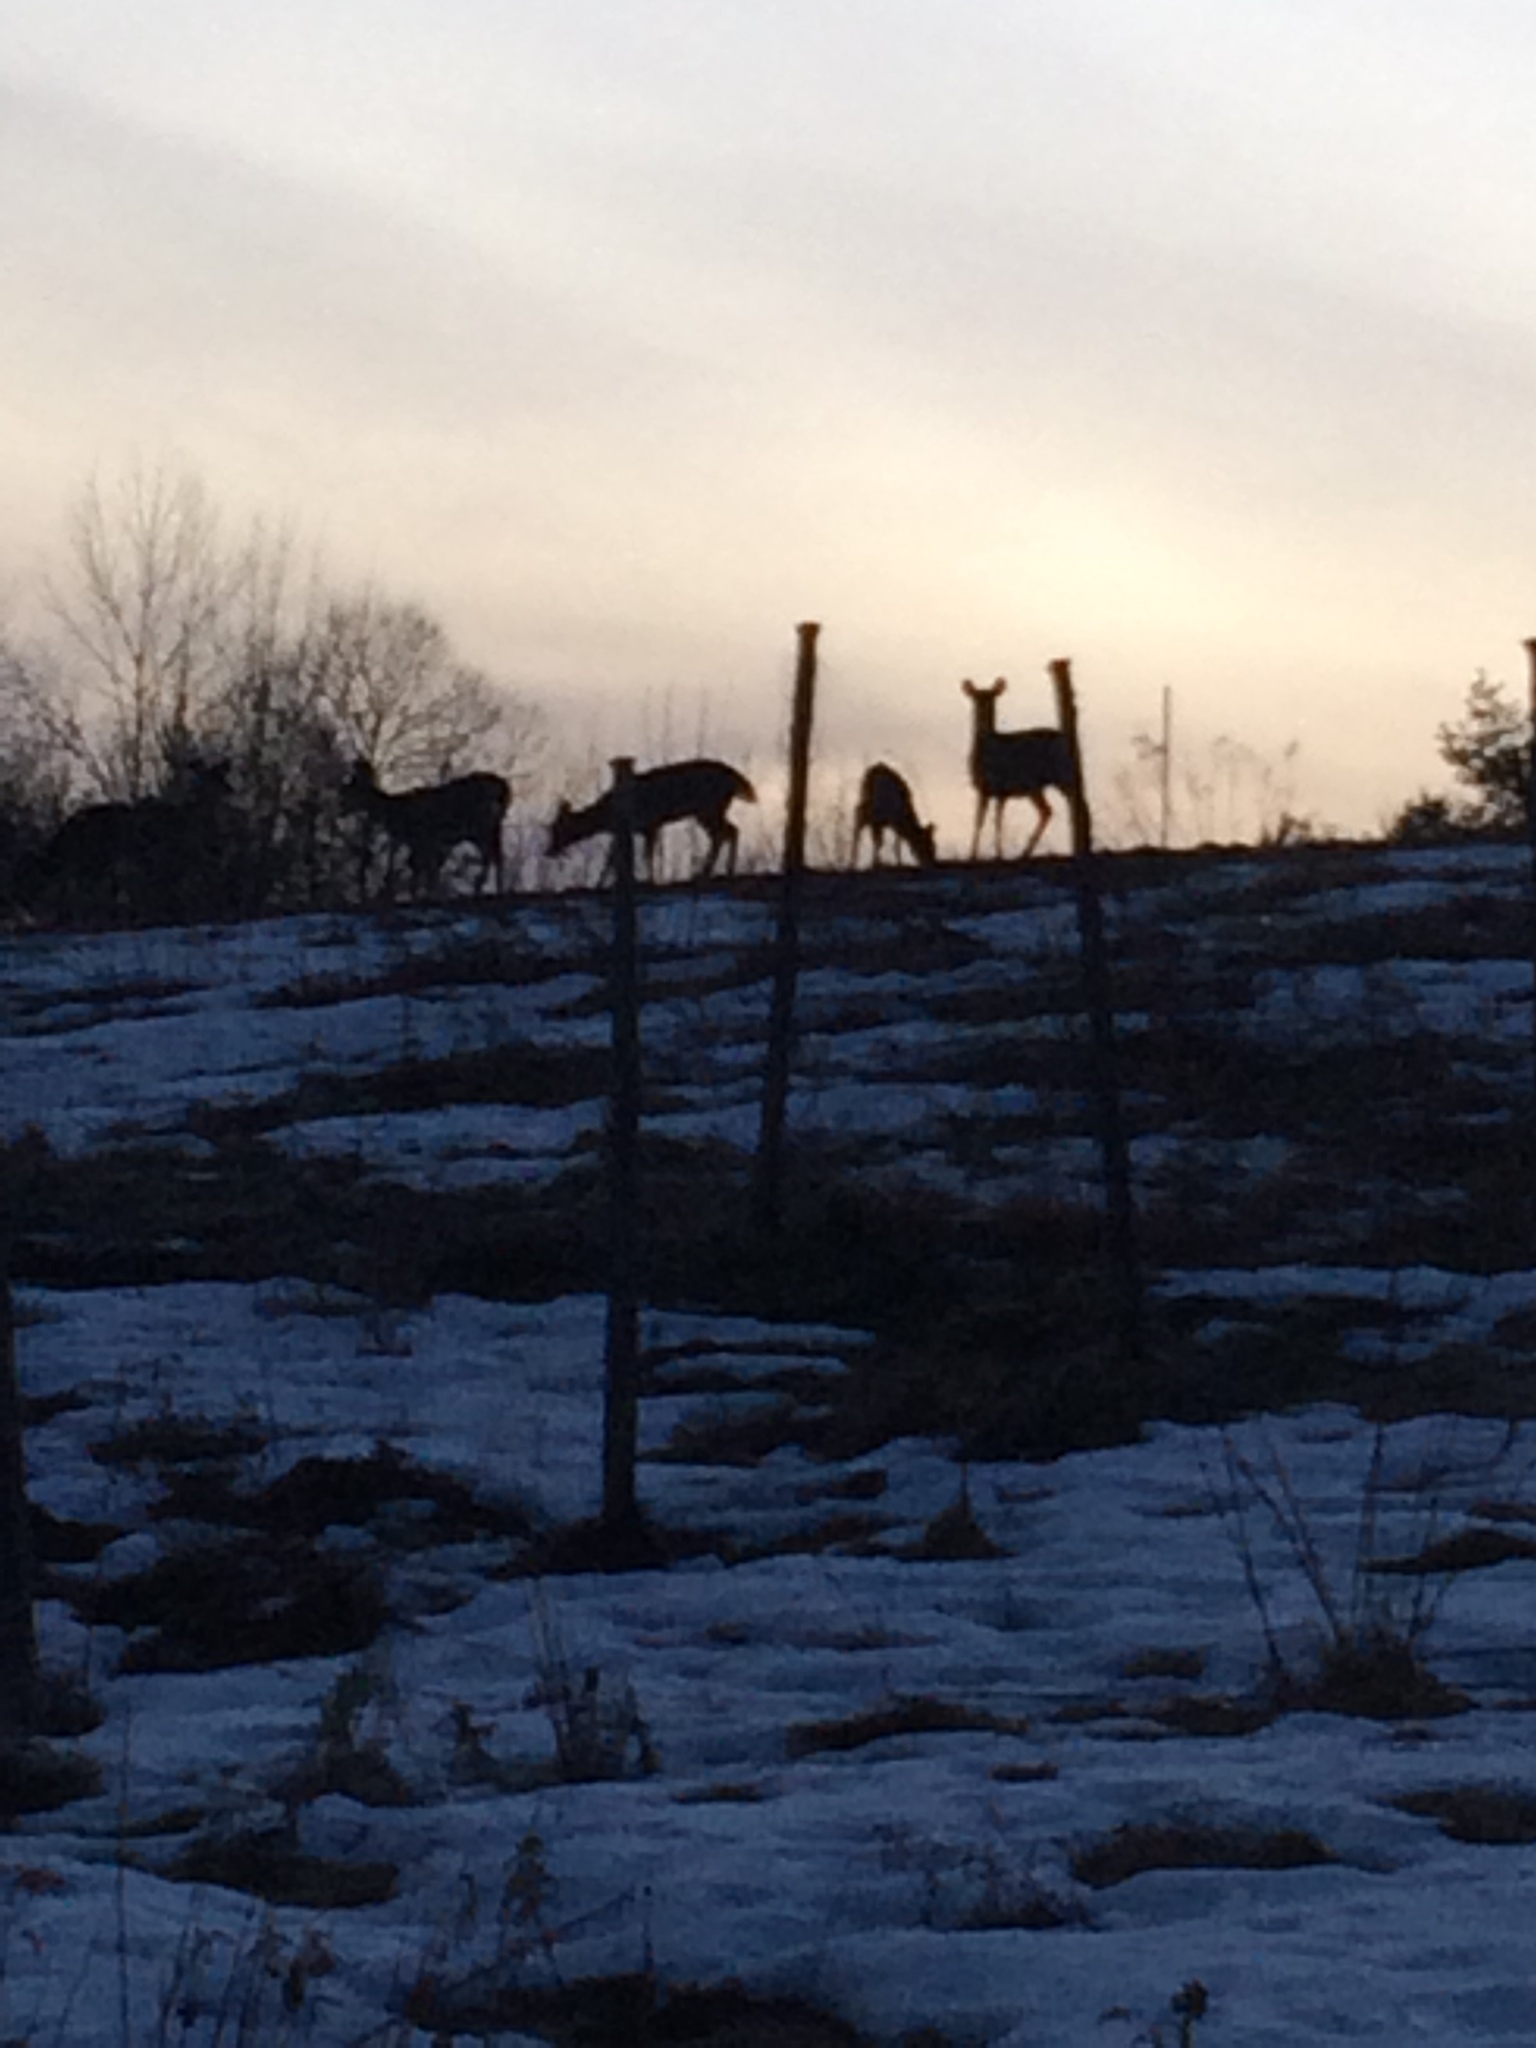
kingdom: Animalia
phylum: Chordata
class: Mammalia
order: Artiodactyla
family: Cervidae
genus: Odocoileus
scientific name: Odocoileus virginianus
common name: White-tailed deer
